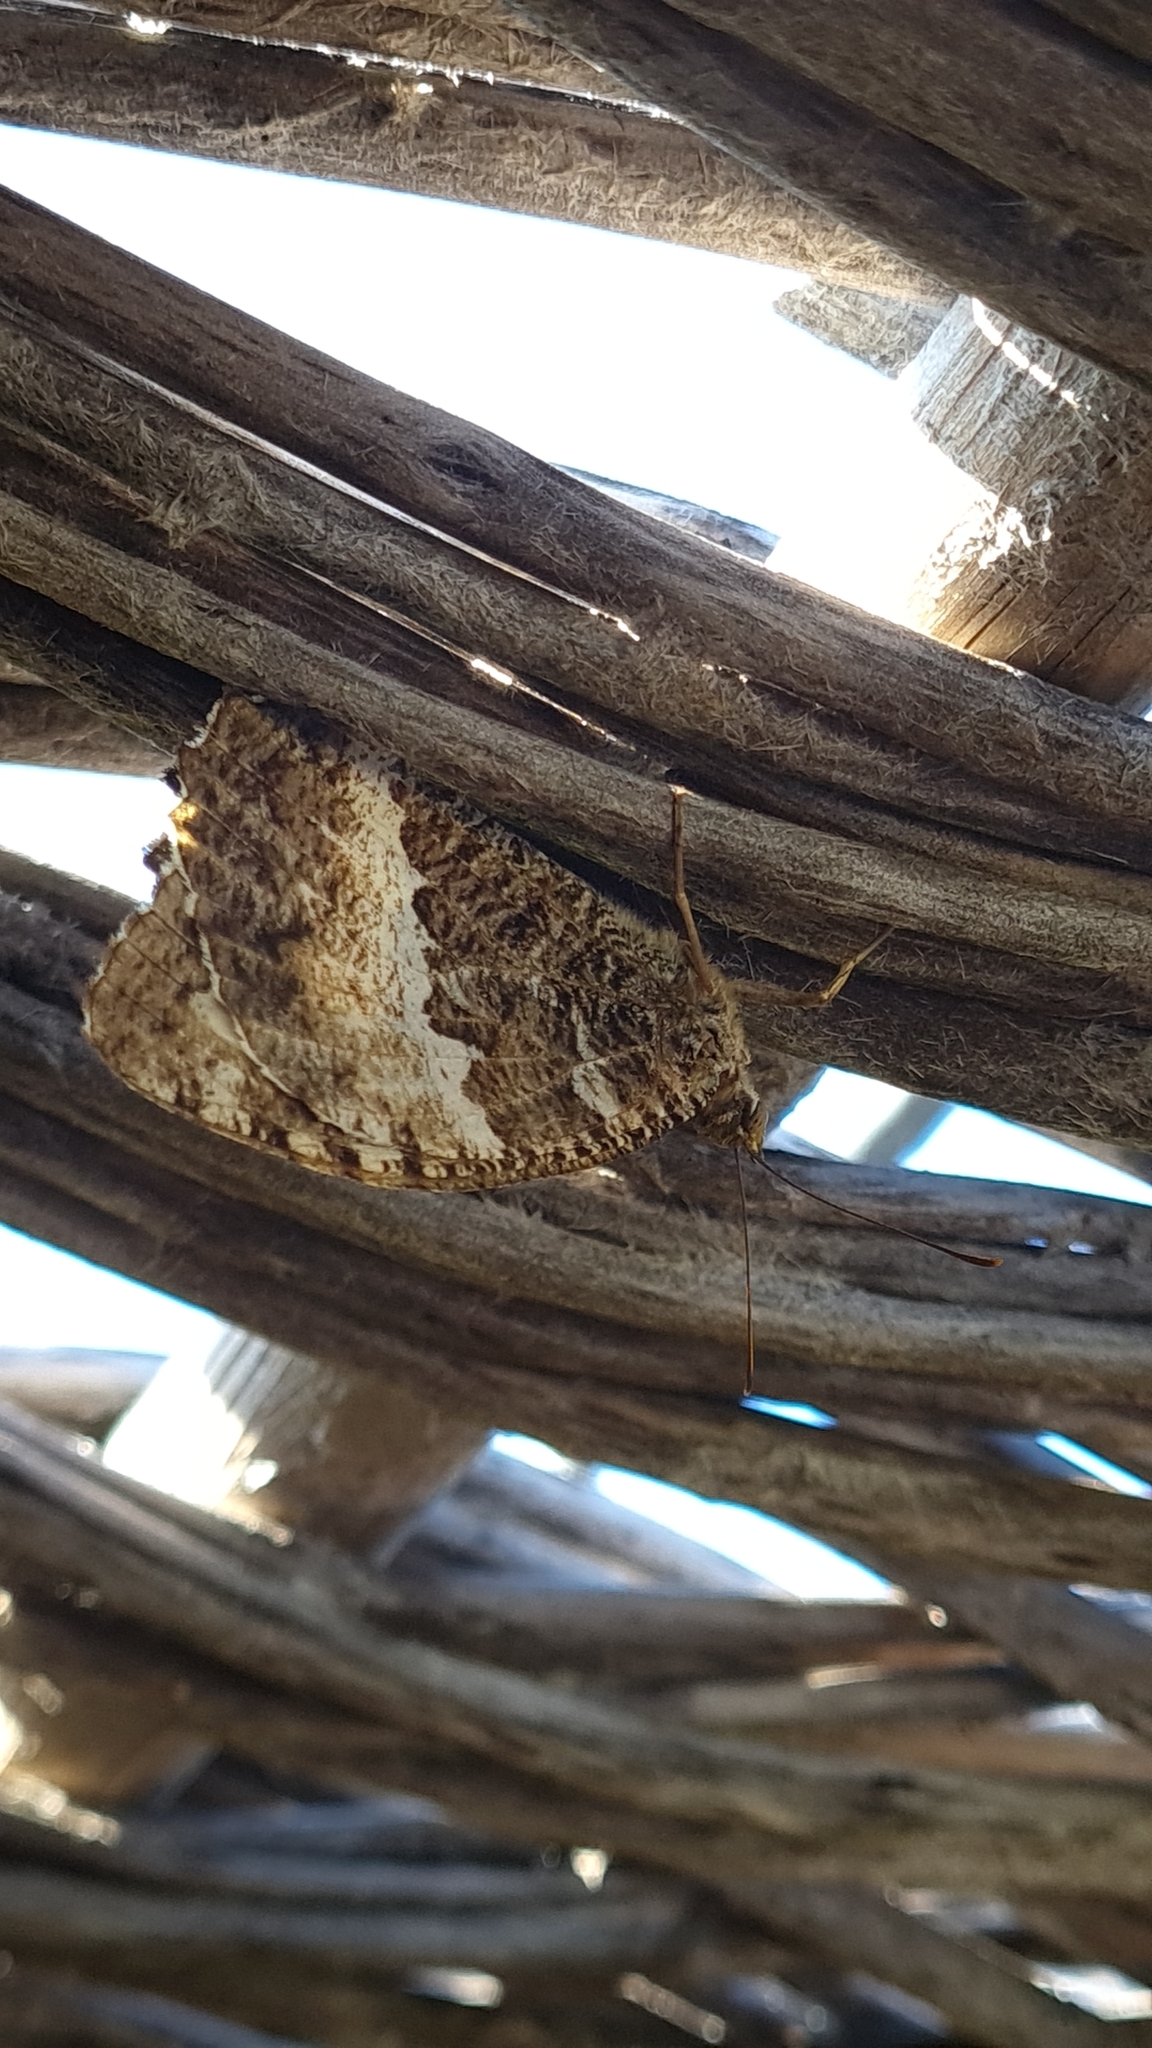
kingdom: Animalia
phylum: Arthropoda
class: Insecta
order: Lepidoptera
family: Lycaenidae
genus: Loweia
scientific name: Loweia tityrus
